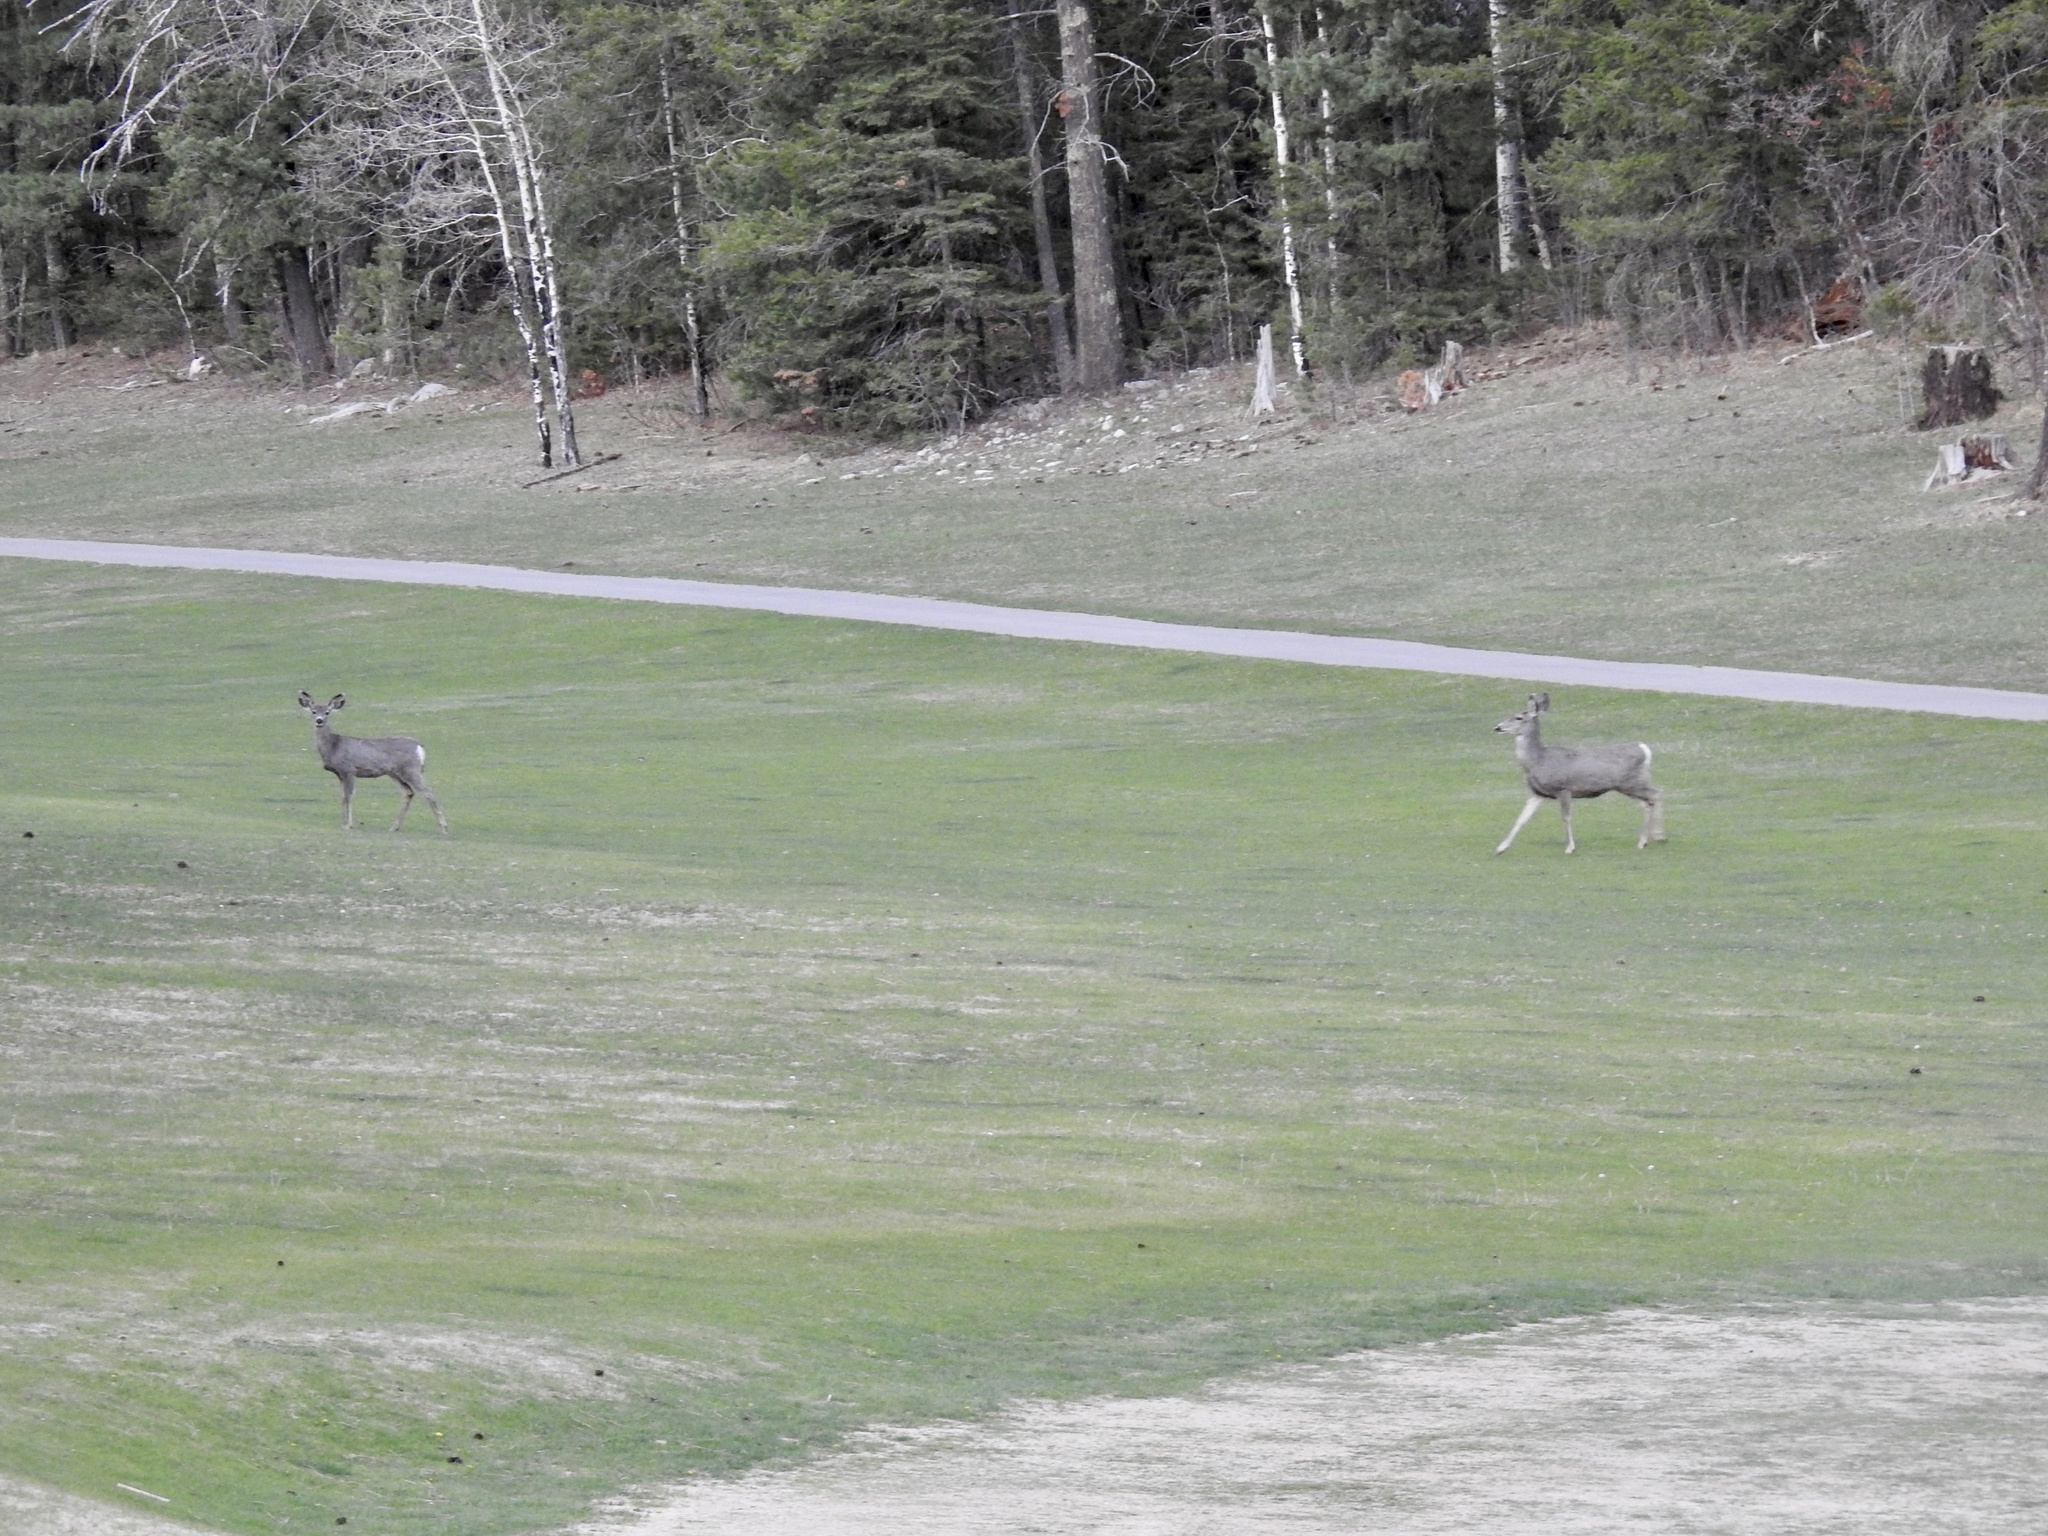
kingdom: Animalia
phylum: Chordata
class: Mammalia
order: Artiodactyla
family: Cervidae
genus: Odocoileus
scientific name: Odocoileus hemionus
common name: Mule deer
